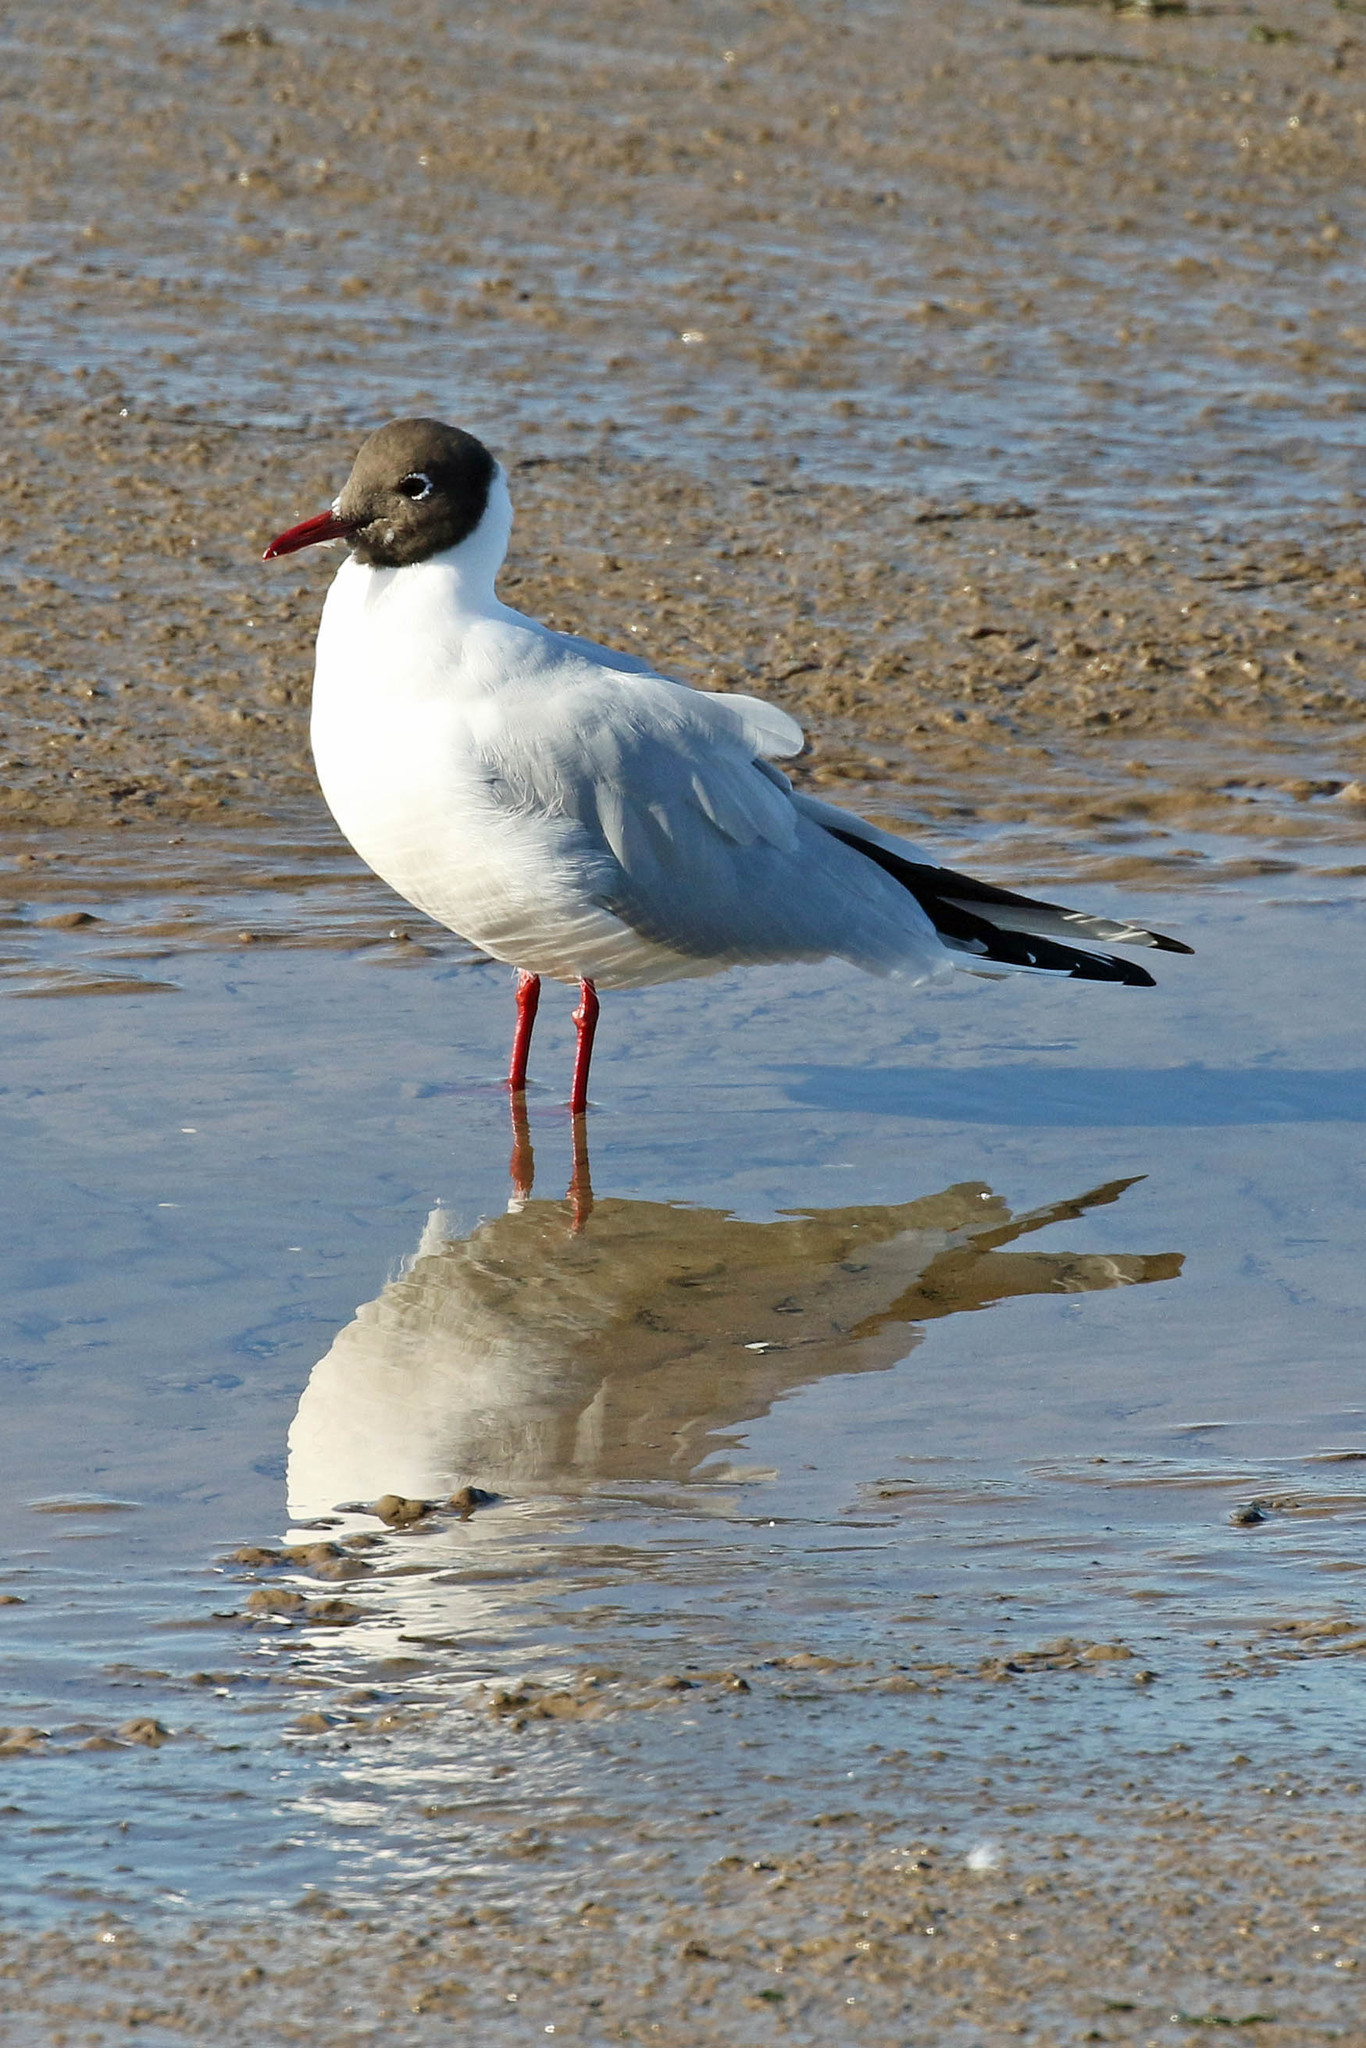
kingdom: Animalia
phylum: Chordata
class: Aves
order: Charadriiformes
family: Laridae
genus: Chroicocephalus
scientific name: Chroicocephalus ridibundus
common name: Black-headed gull
